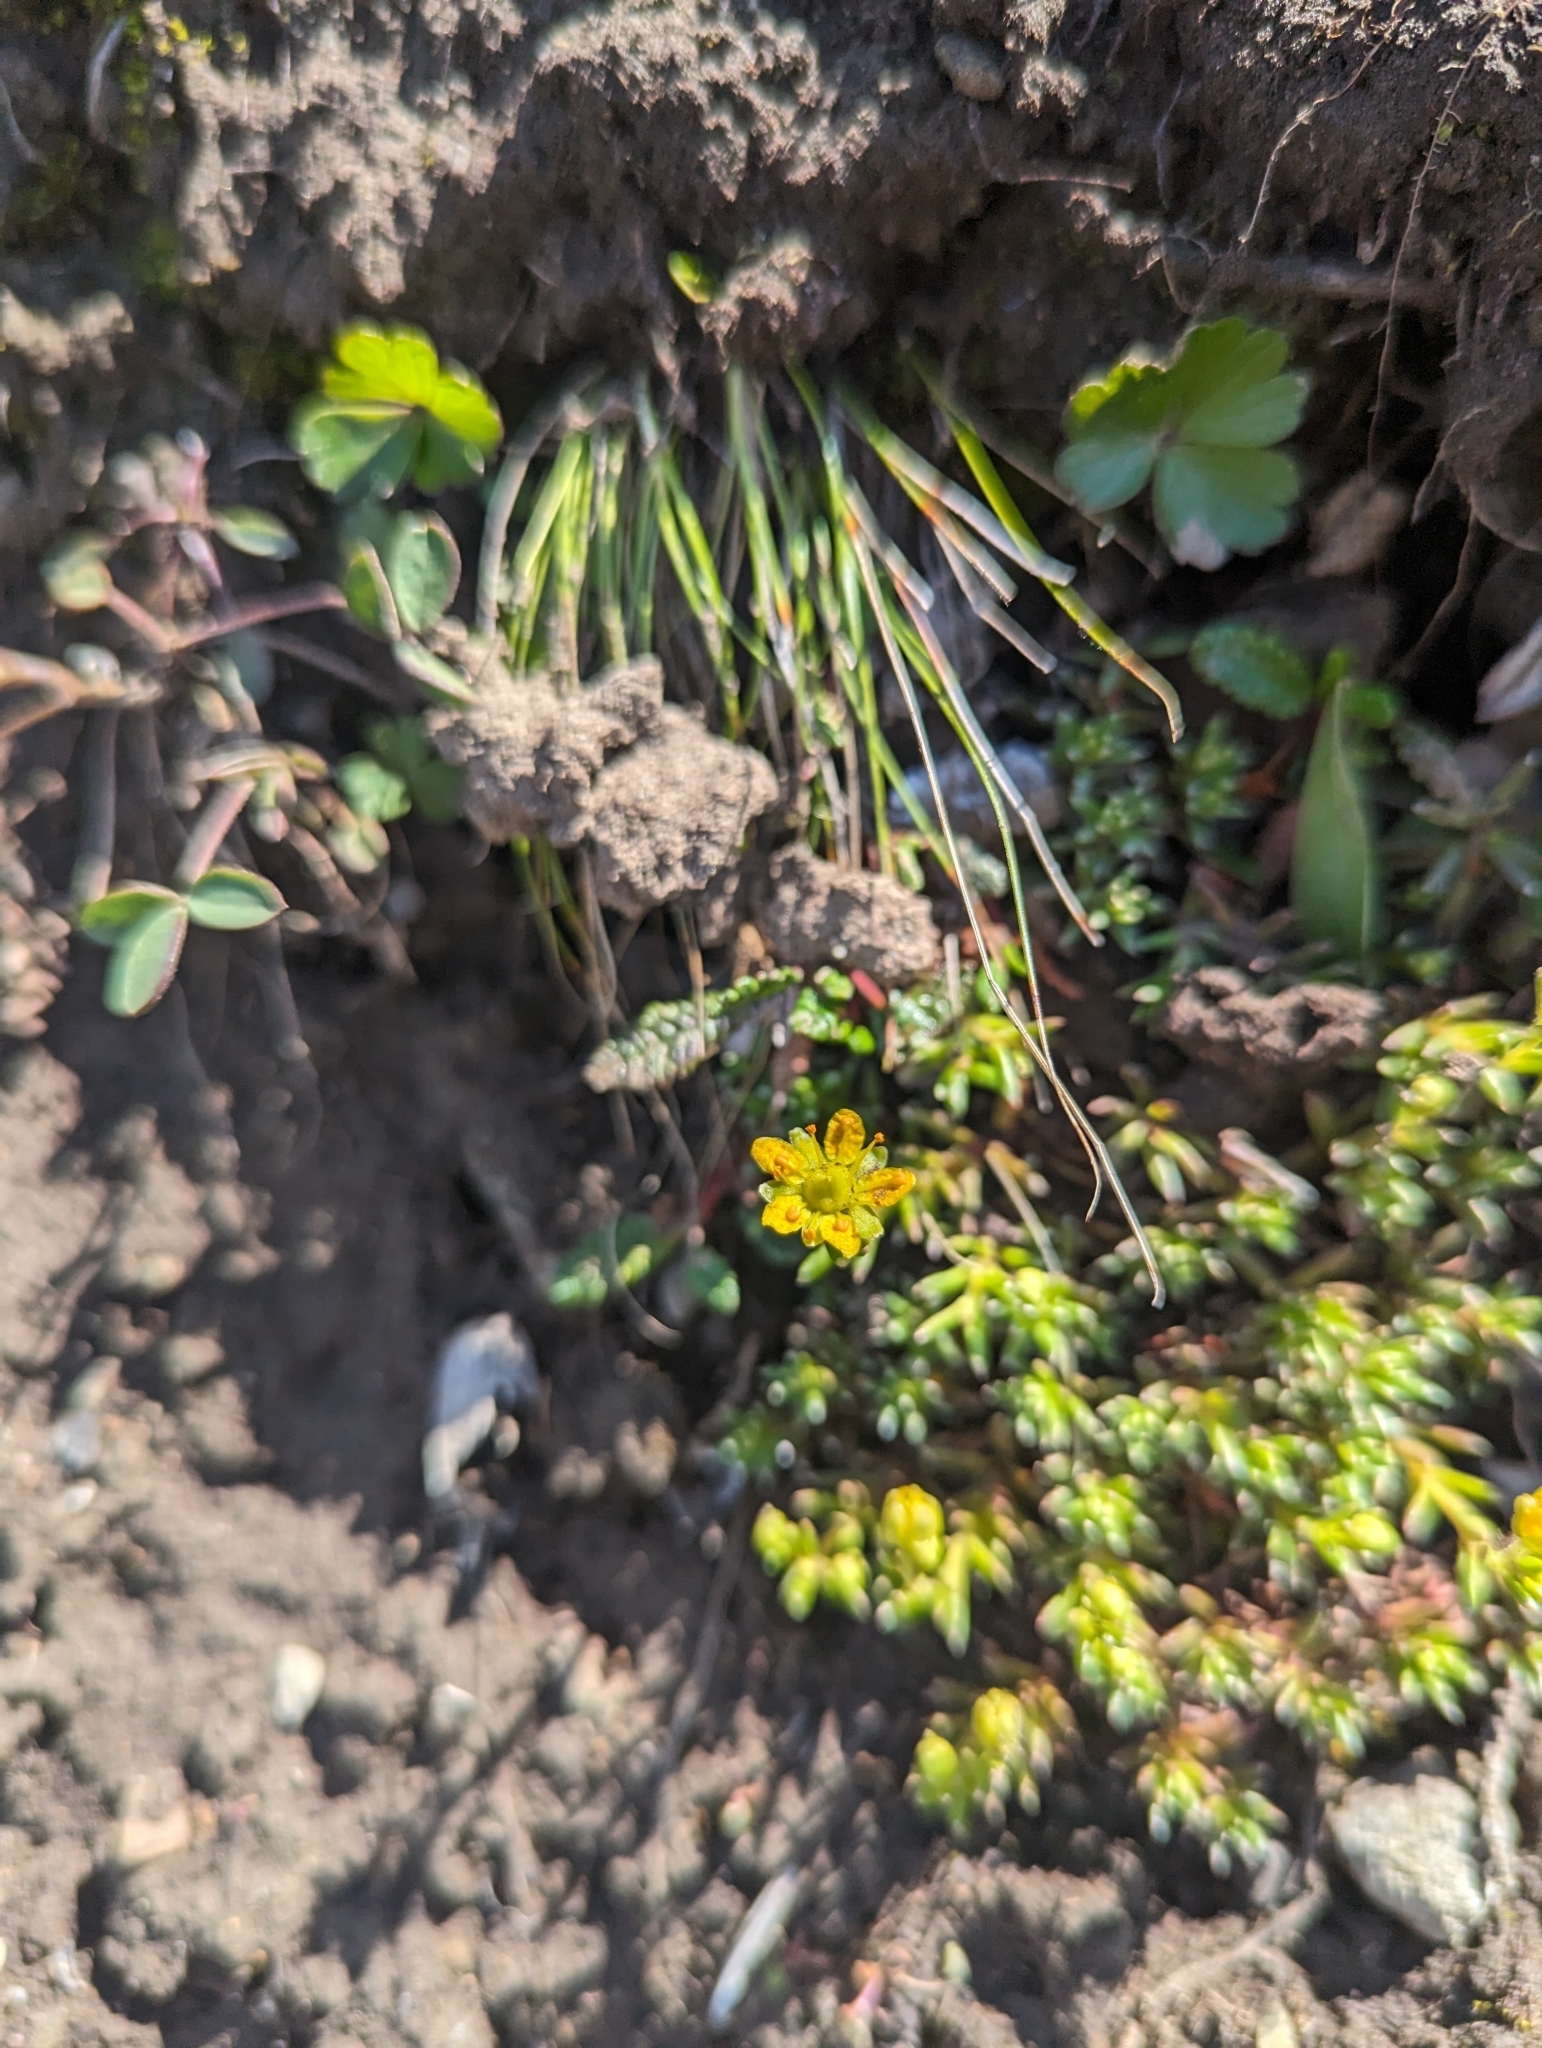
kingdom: Plantae
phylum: Tracheophyta
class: Magnoliopsida
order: Saxifragales
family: Saxifragaceae
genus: Saxifraga
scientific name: Saxifraga aizoides
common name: Yellow mountain saxifrage
